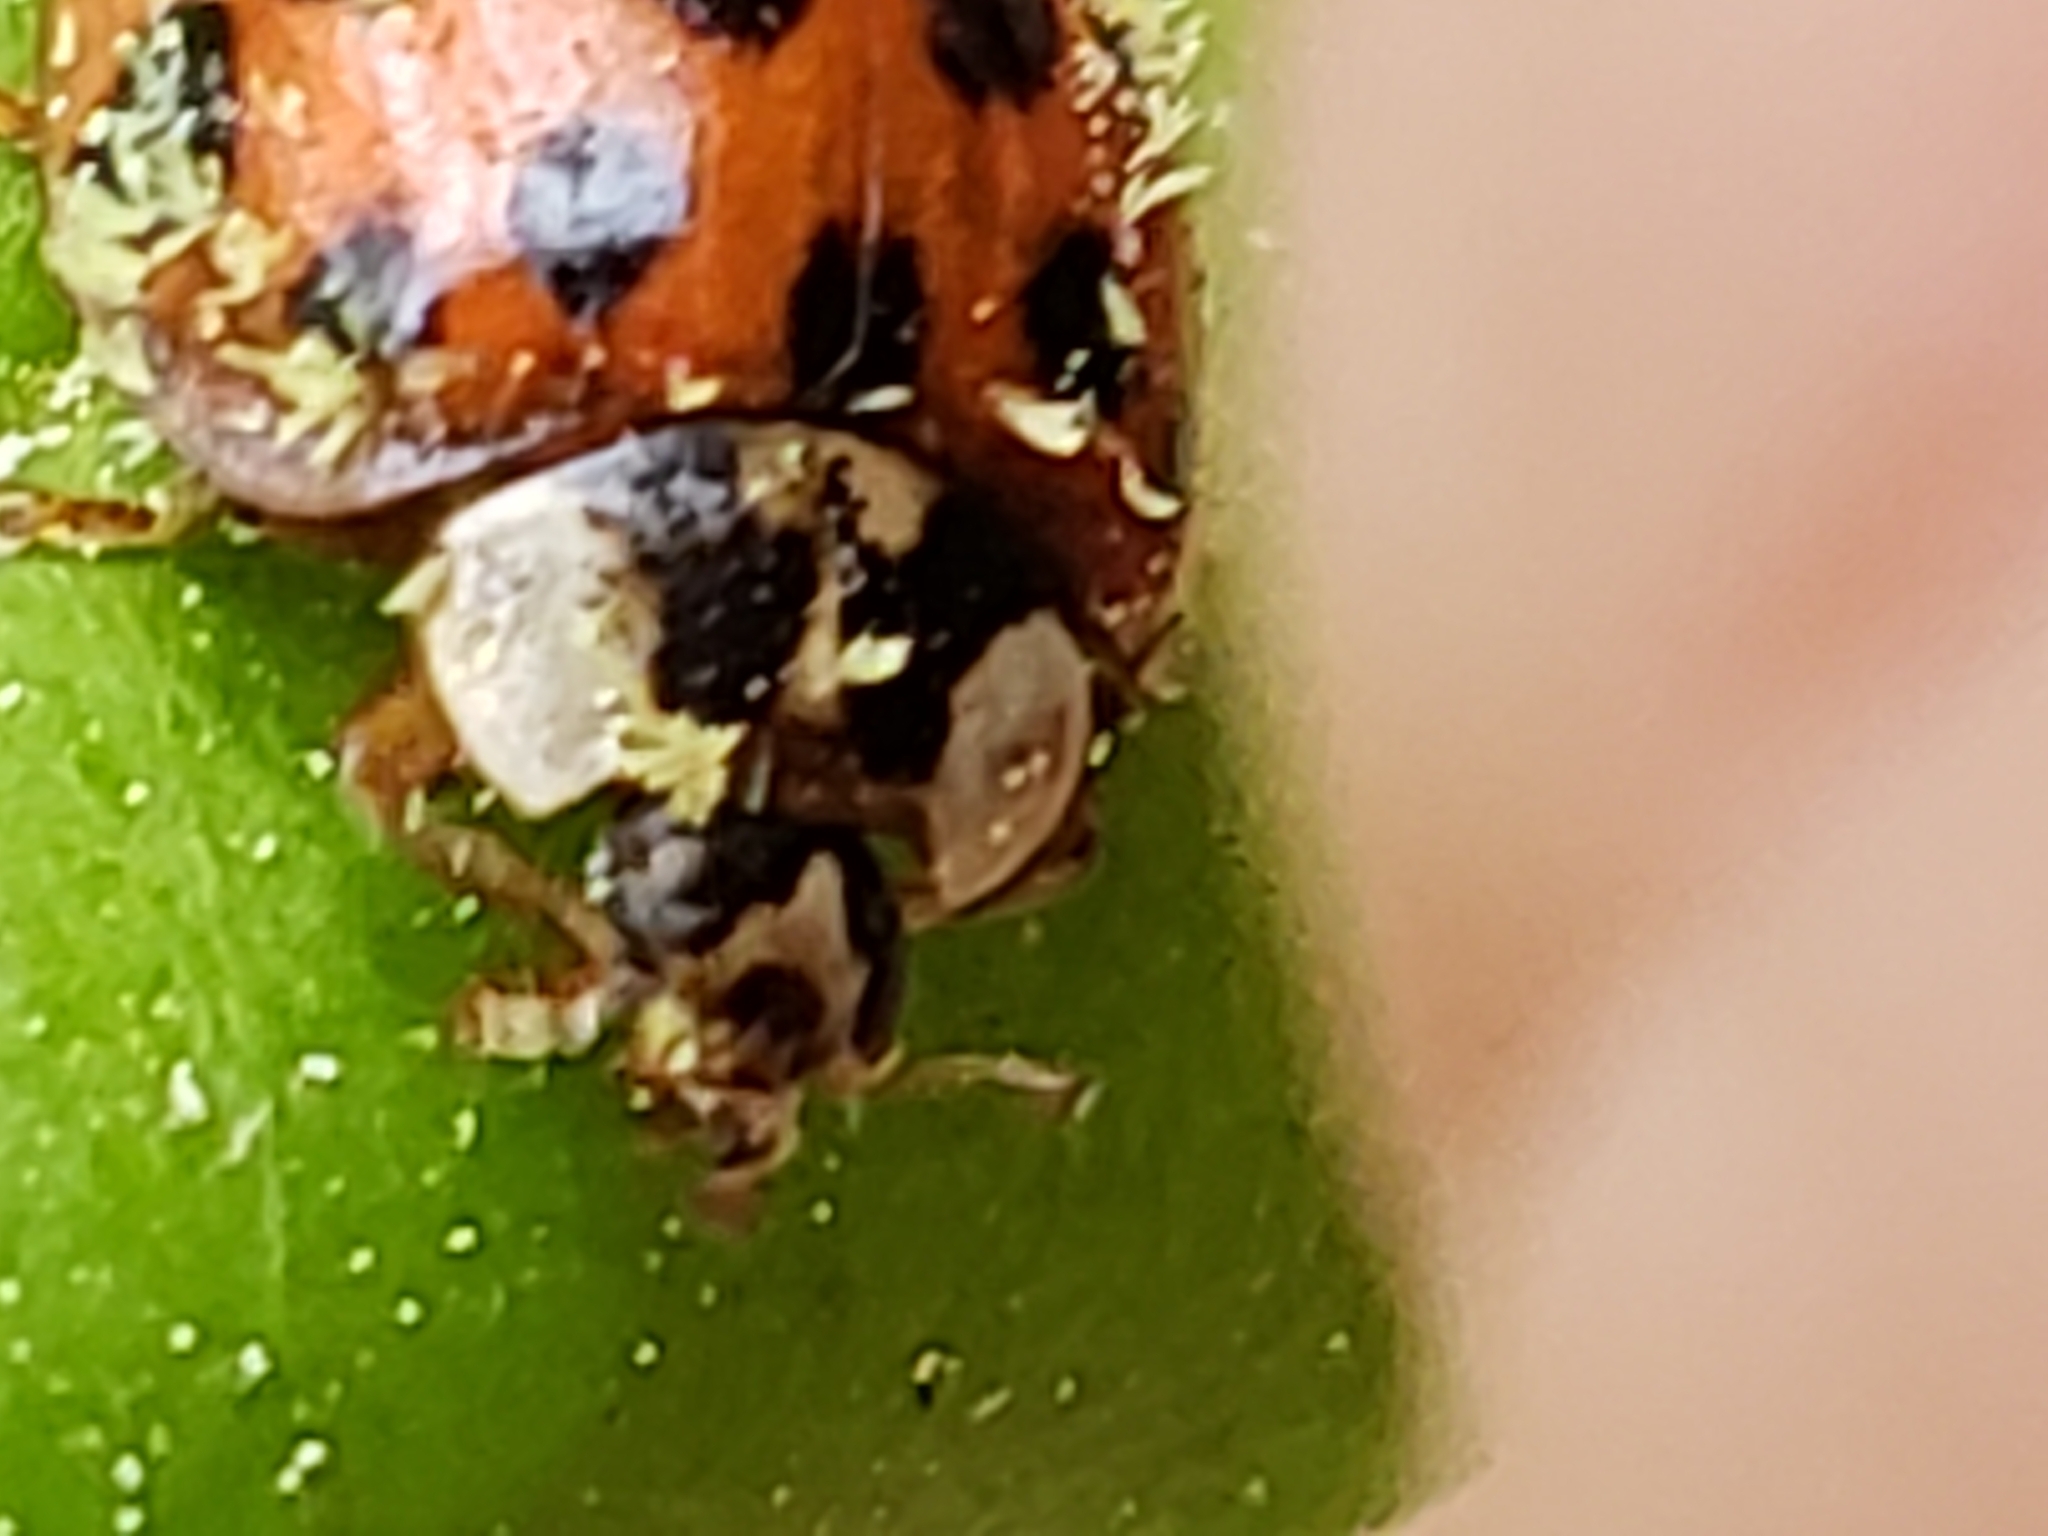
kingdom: Animalia
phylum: Arthropoda
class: Insecta
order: Coleoptera
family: Coccinellidae
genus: Harmonia
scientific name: Harmonia axyridis
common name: Harlequin ladybird
